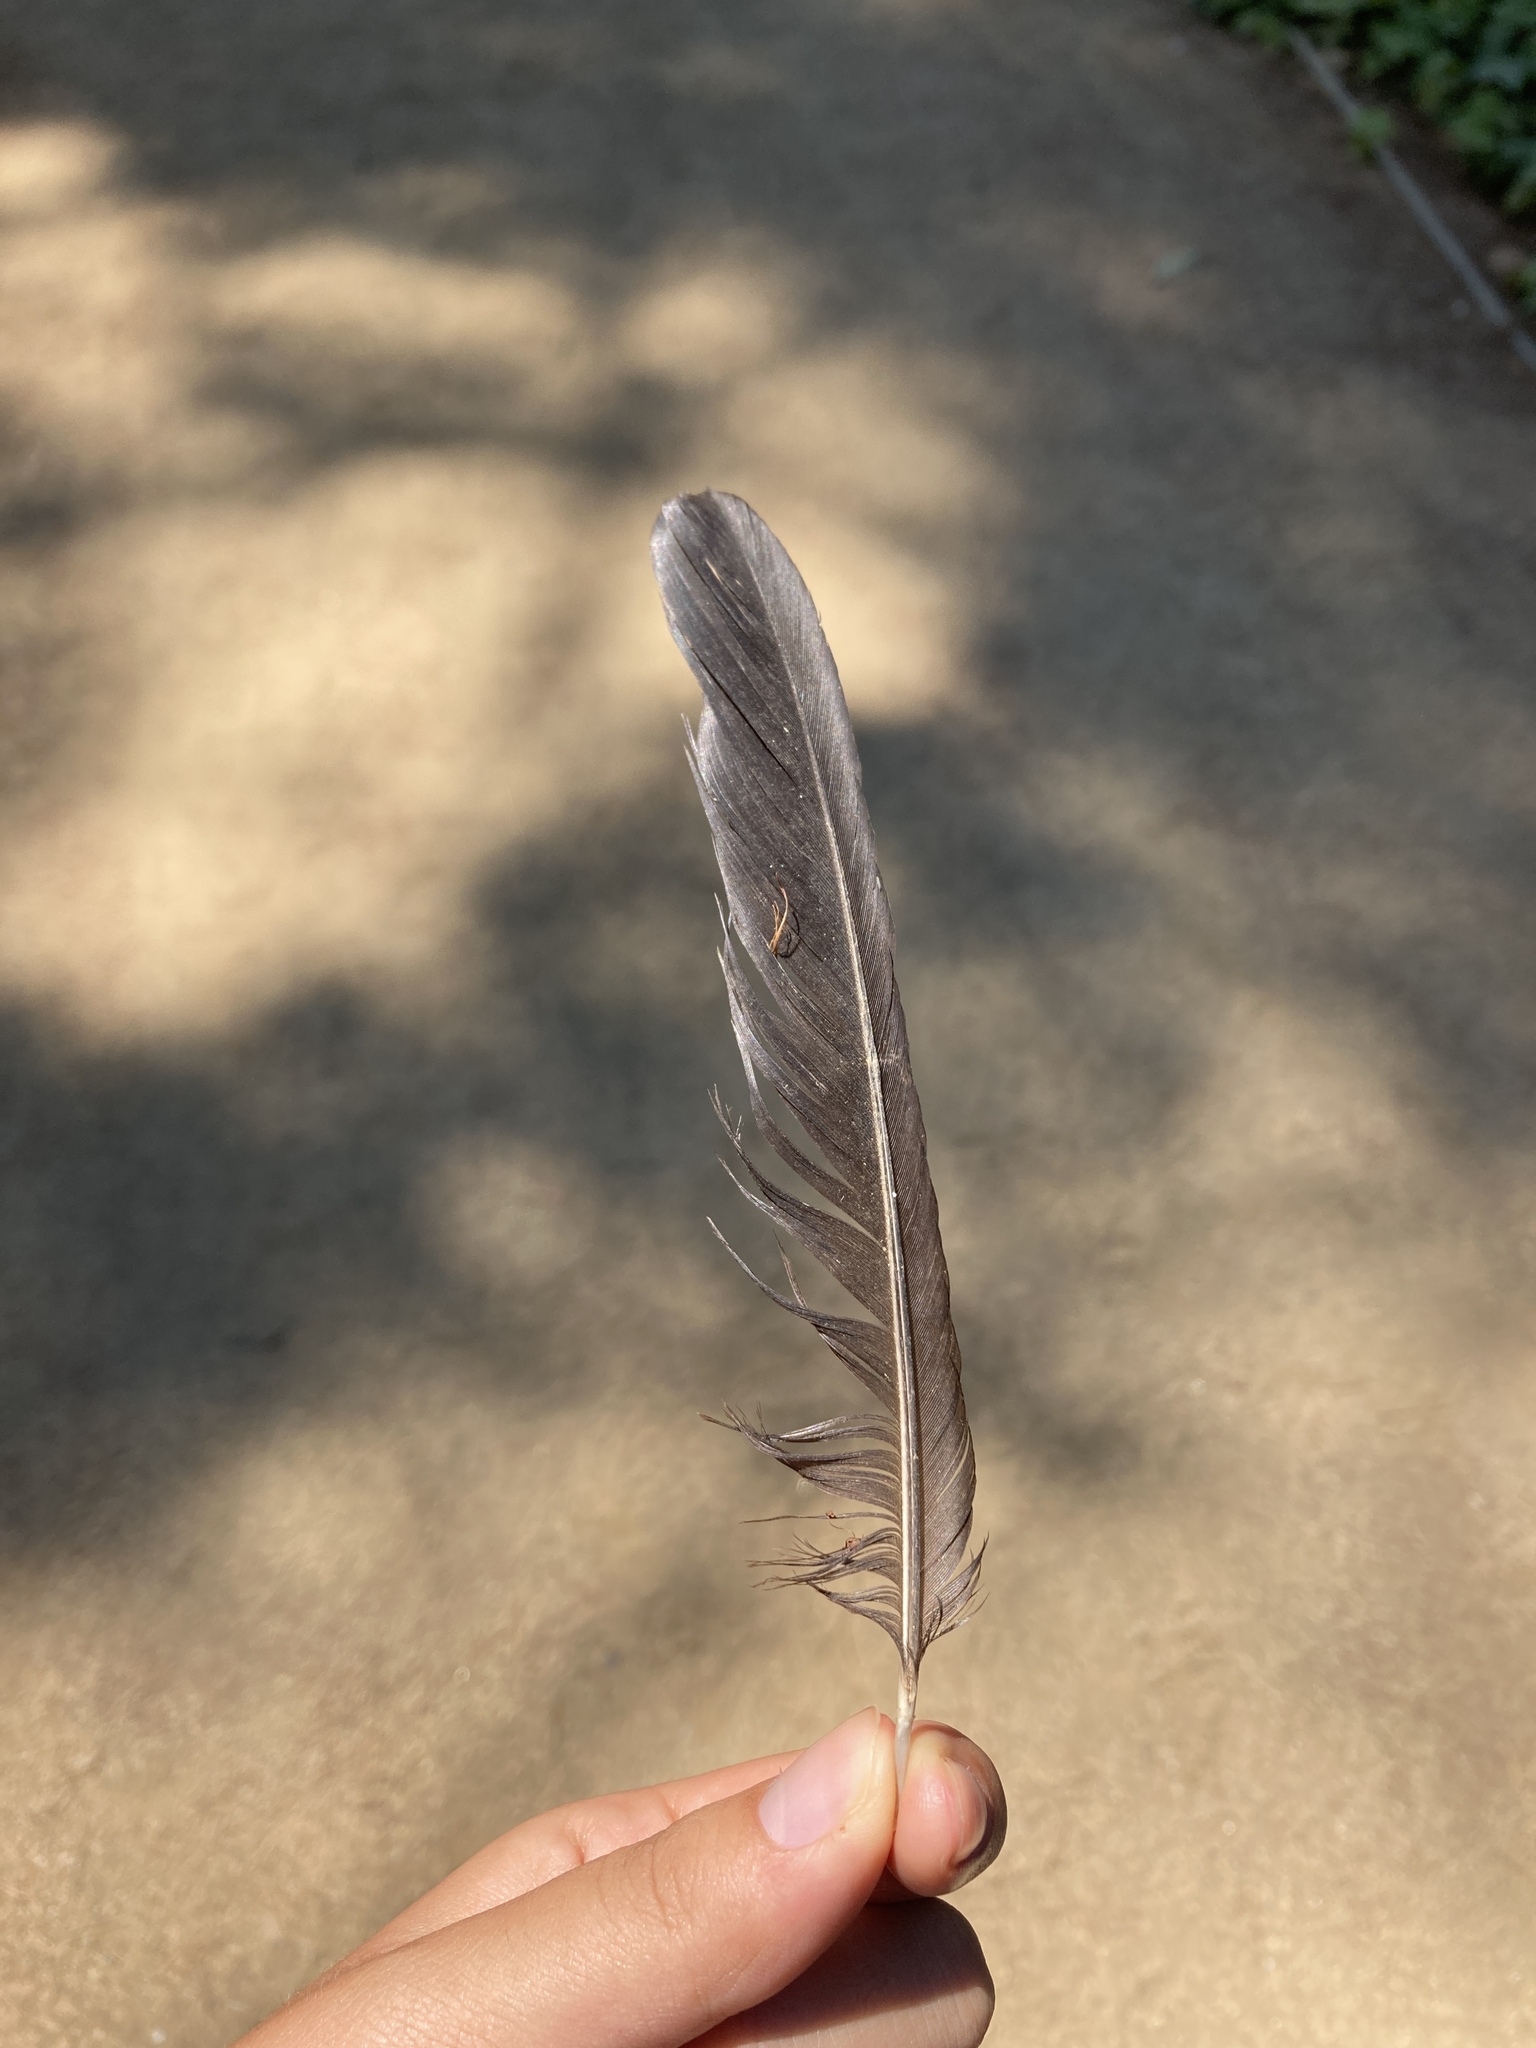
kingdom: Animalia
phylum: Chordata
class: Aves
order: Passeriformes
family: Corvidae
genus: Pica
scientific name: Pica pica
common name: Eurasian magpie
